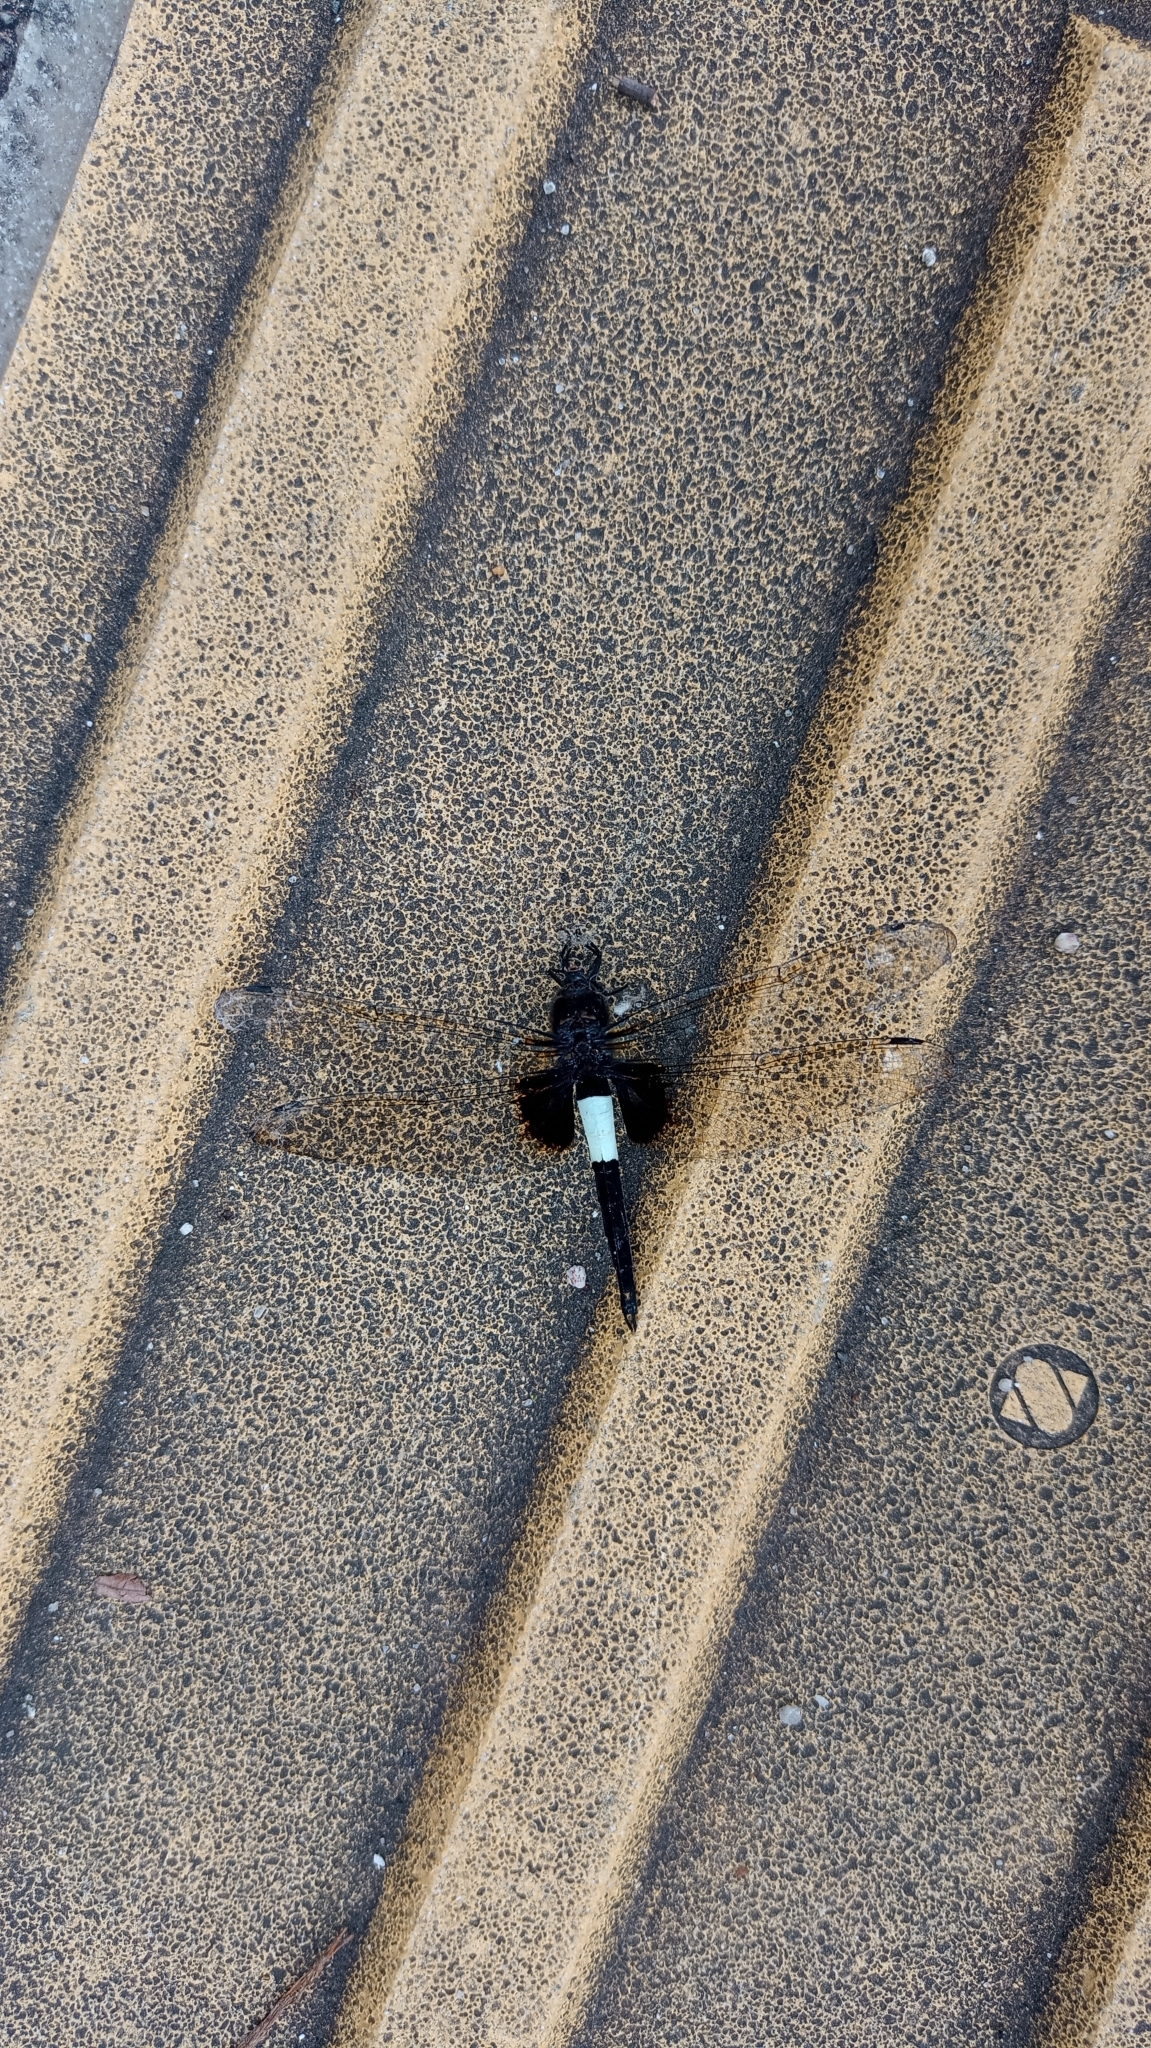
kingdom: Animalia
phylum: Arthropoda
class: Insecta
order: Odonata
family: Libellulidae
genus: Pseudothemis
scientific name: Pseudothemis zonata
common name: Pied skimmer
